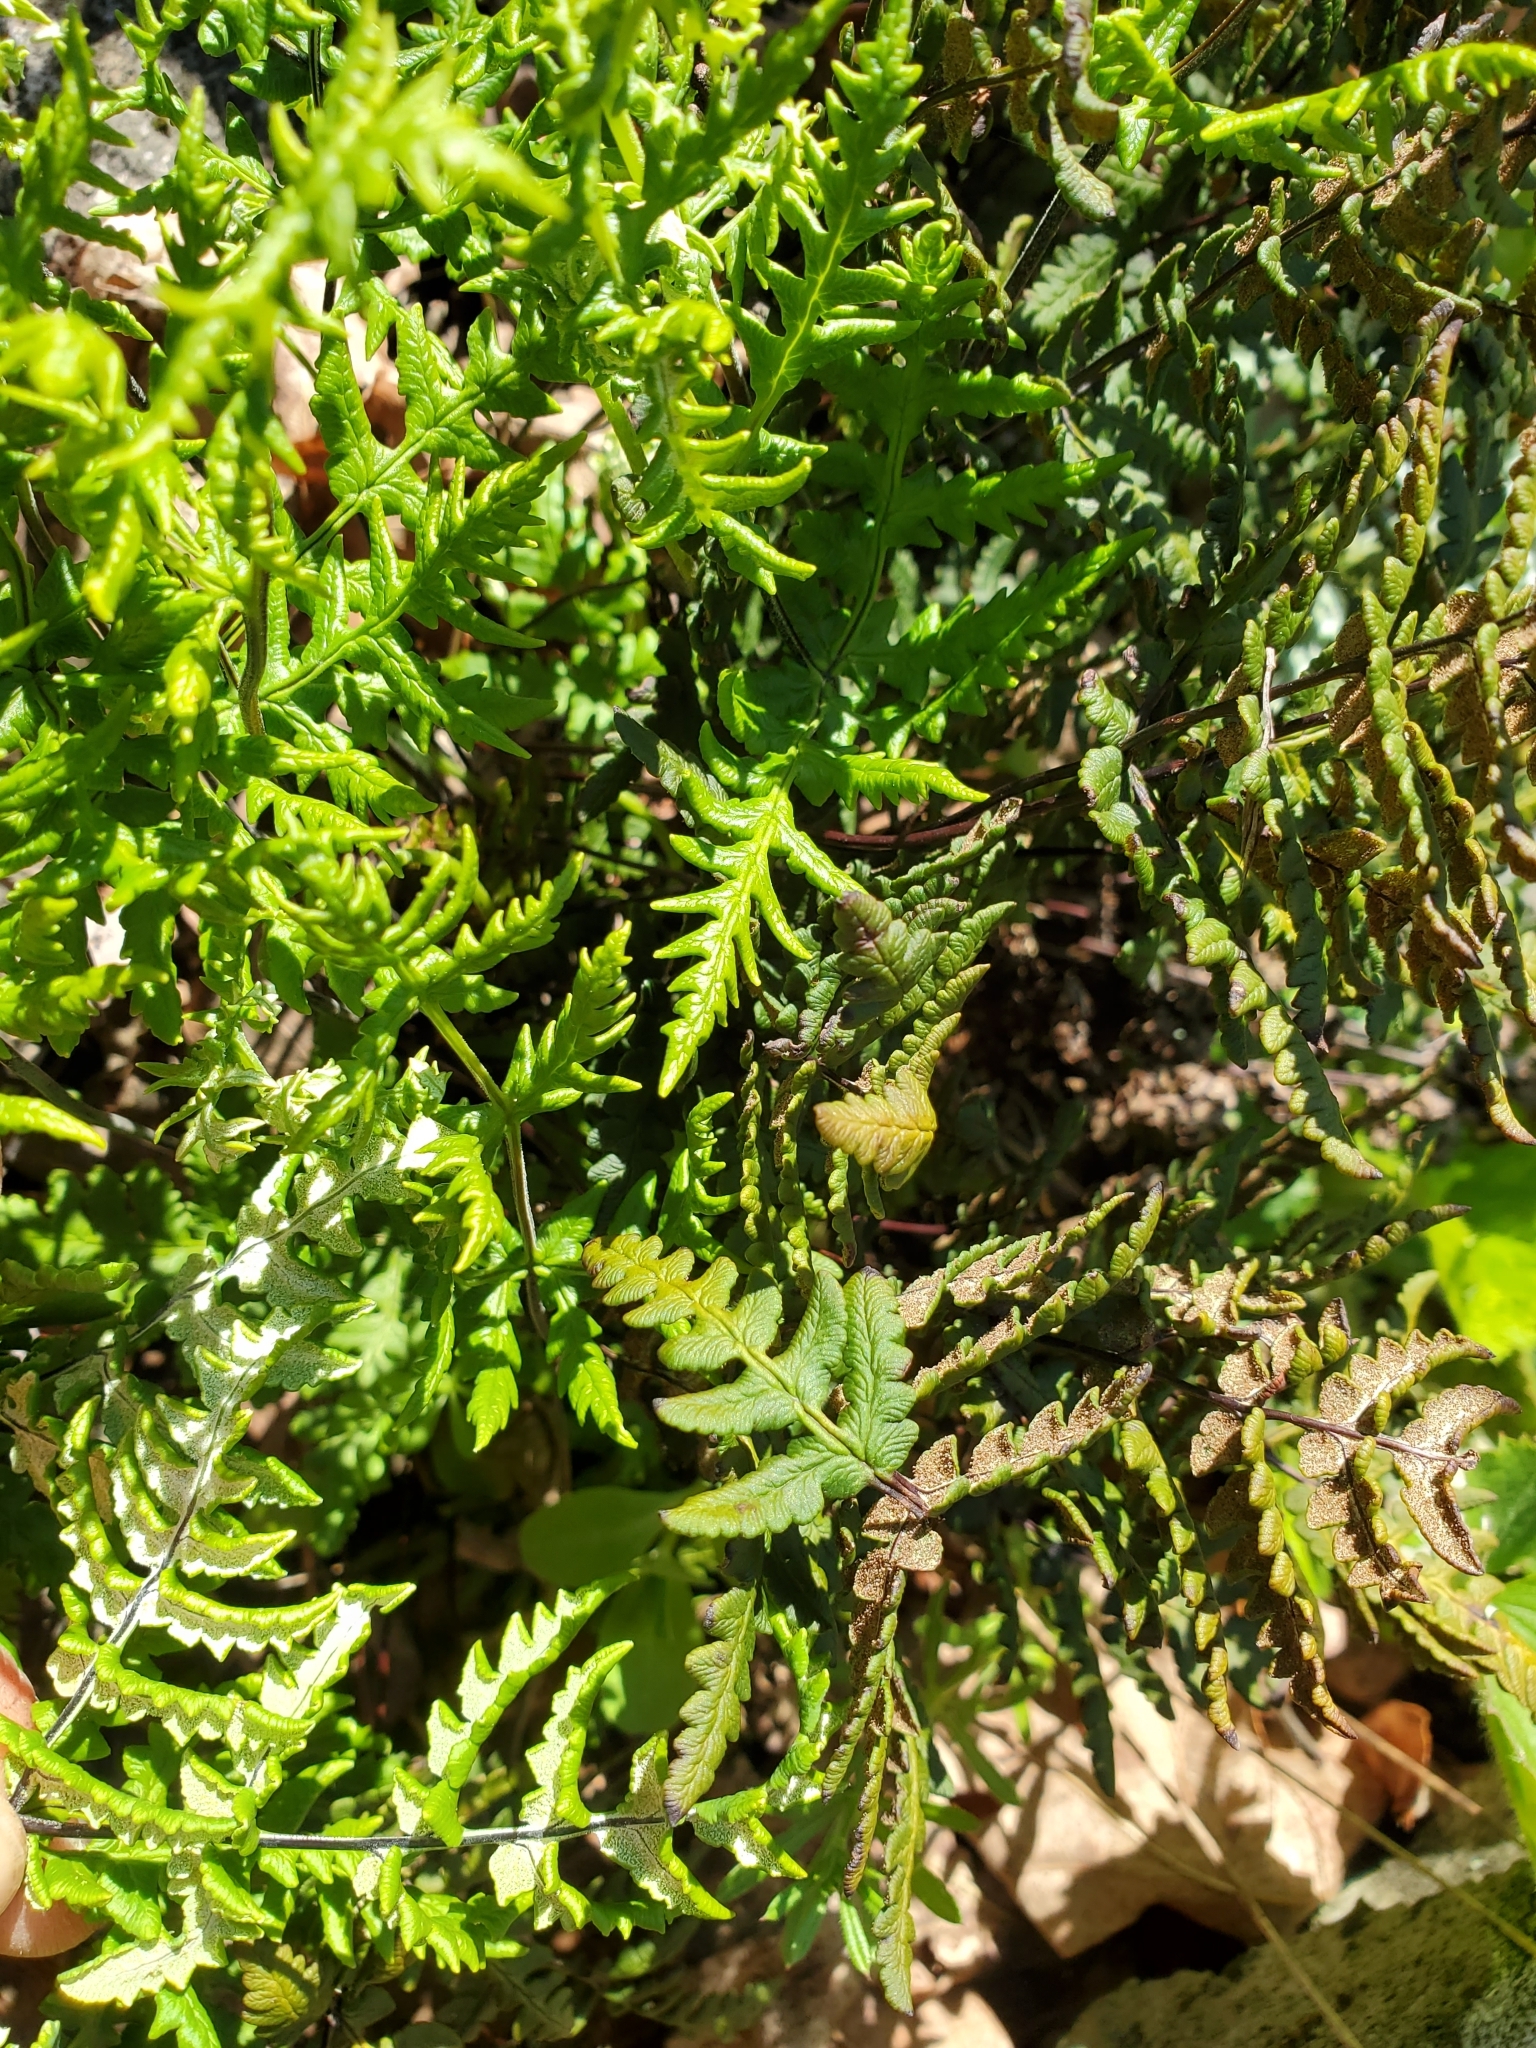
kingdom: Plantae
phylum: Tracheophyta
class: Polypodiopsida
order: Polypodiales
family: Pteridaceae
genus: Pentagramma
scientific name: Pentagramma triangularis
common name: Gold fern
